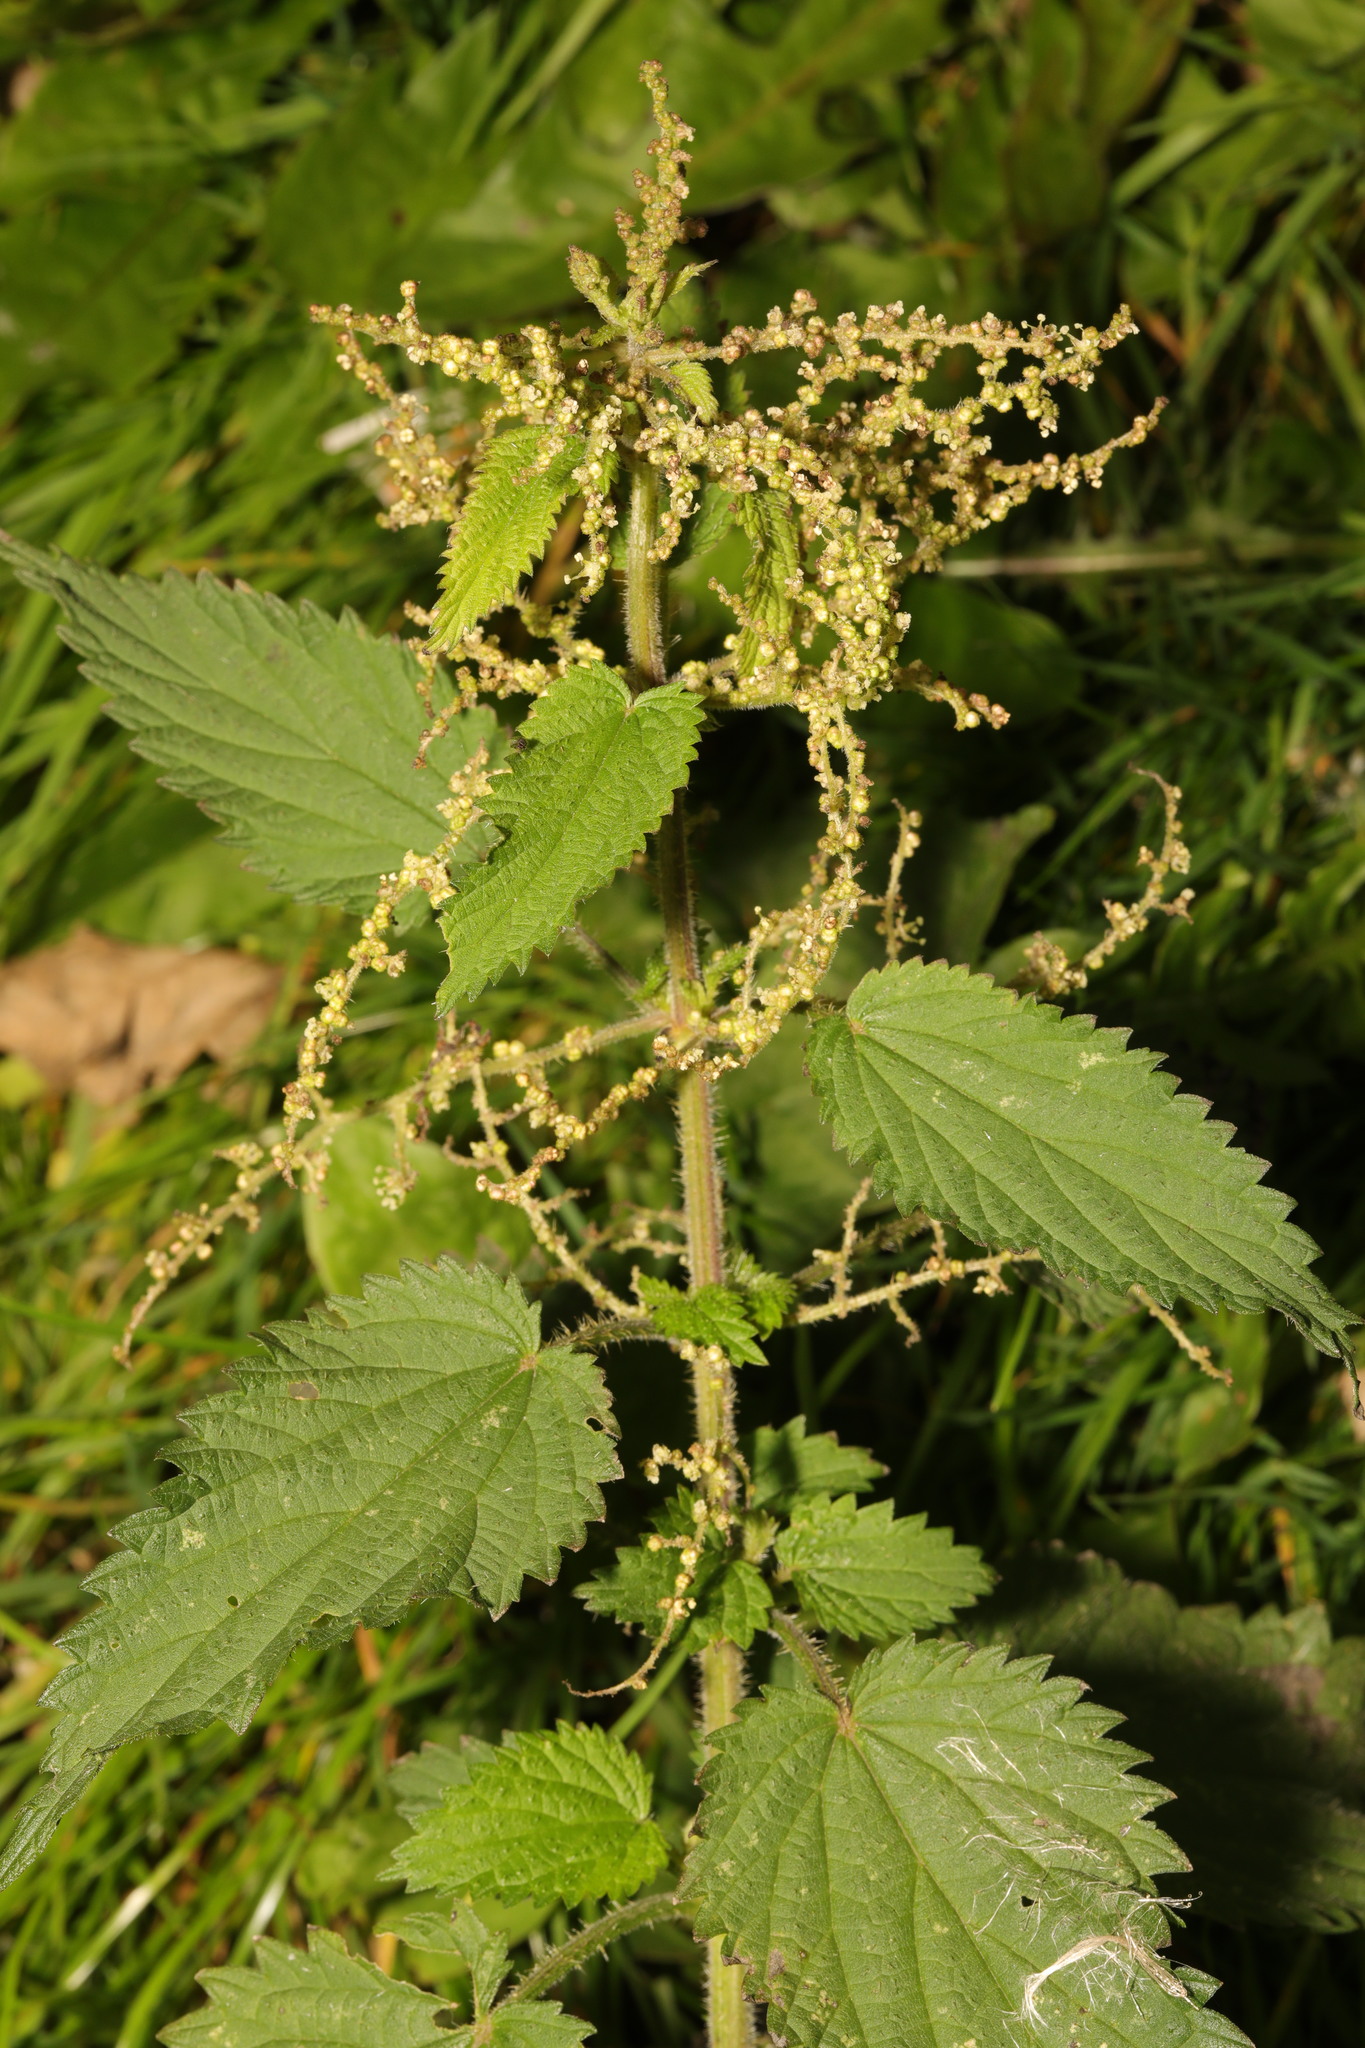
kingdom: Plantae
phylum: Tracheophyta
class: Magnoliopsida
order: Rosales
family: Urticaceae
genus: Urtica
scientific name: Urtica dioica
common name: Common nettle
